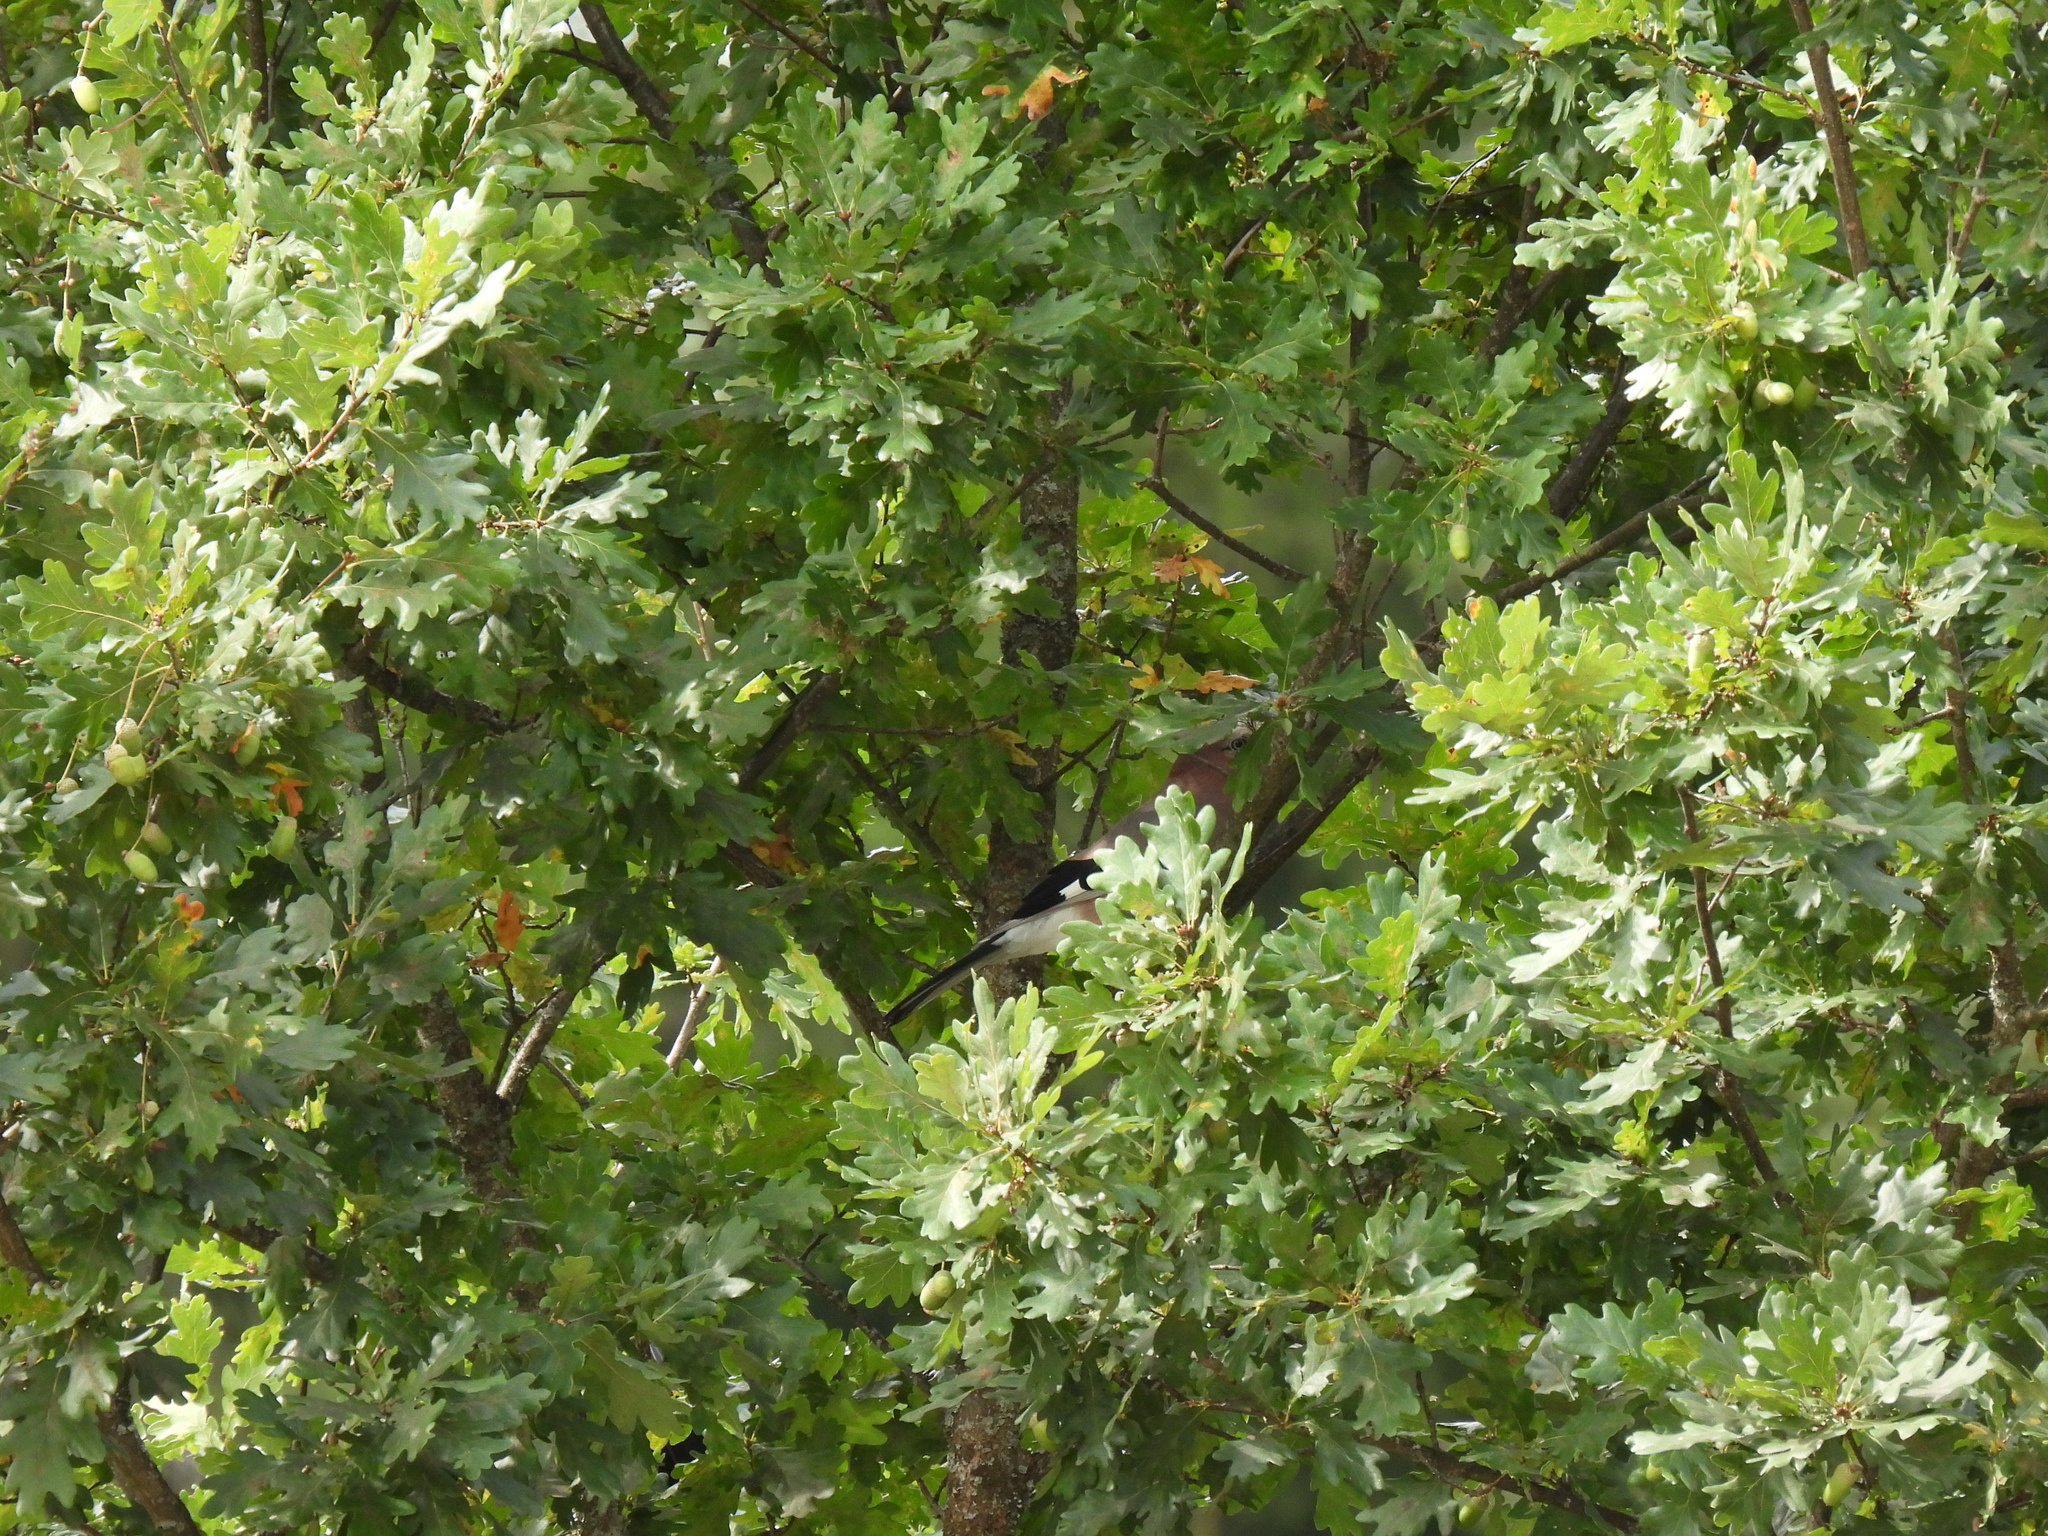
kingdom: Animalia
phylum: Chordata
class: Aves
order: Passeriformes
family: Corvidae
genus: Garrulus
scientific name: Garrulus glandarius
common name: Eurasian jay
